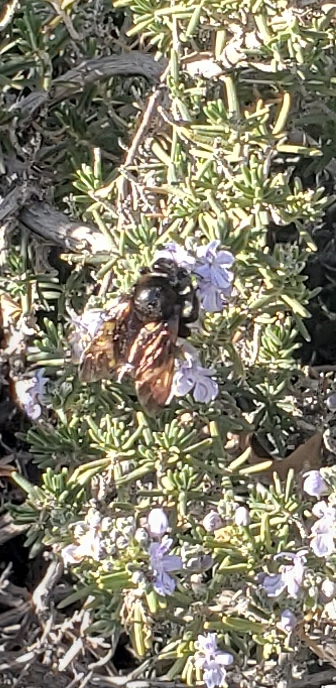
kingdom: Animalia
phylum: Arthropoda
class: Insecta
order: Hymenoptera
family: Apidae
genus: Xylocopa
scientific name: Xylocopa sonorina
